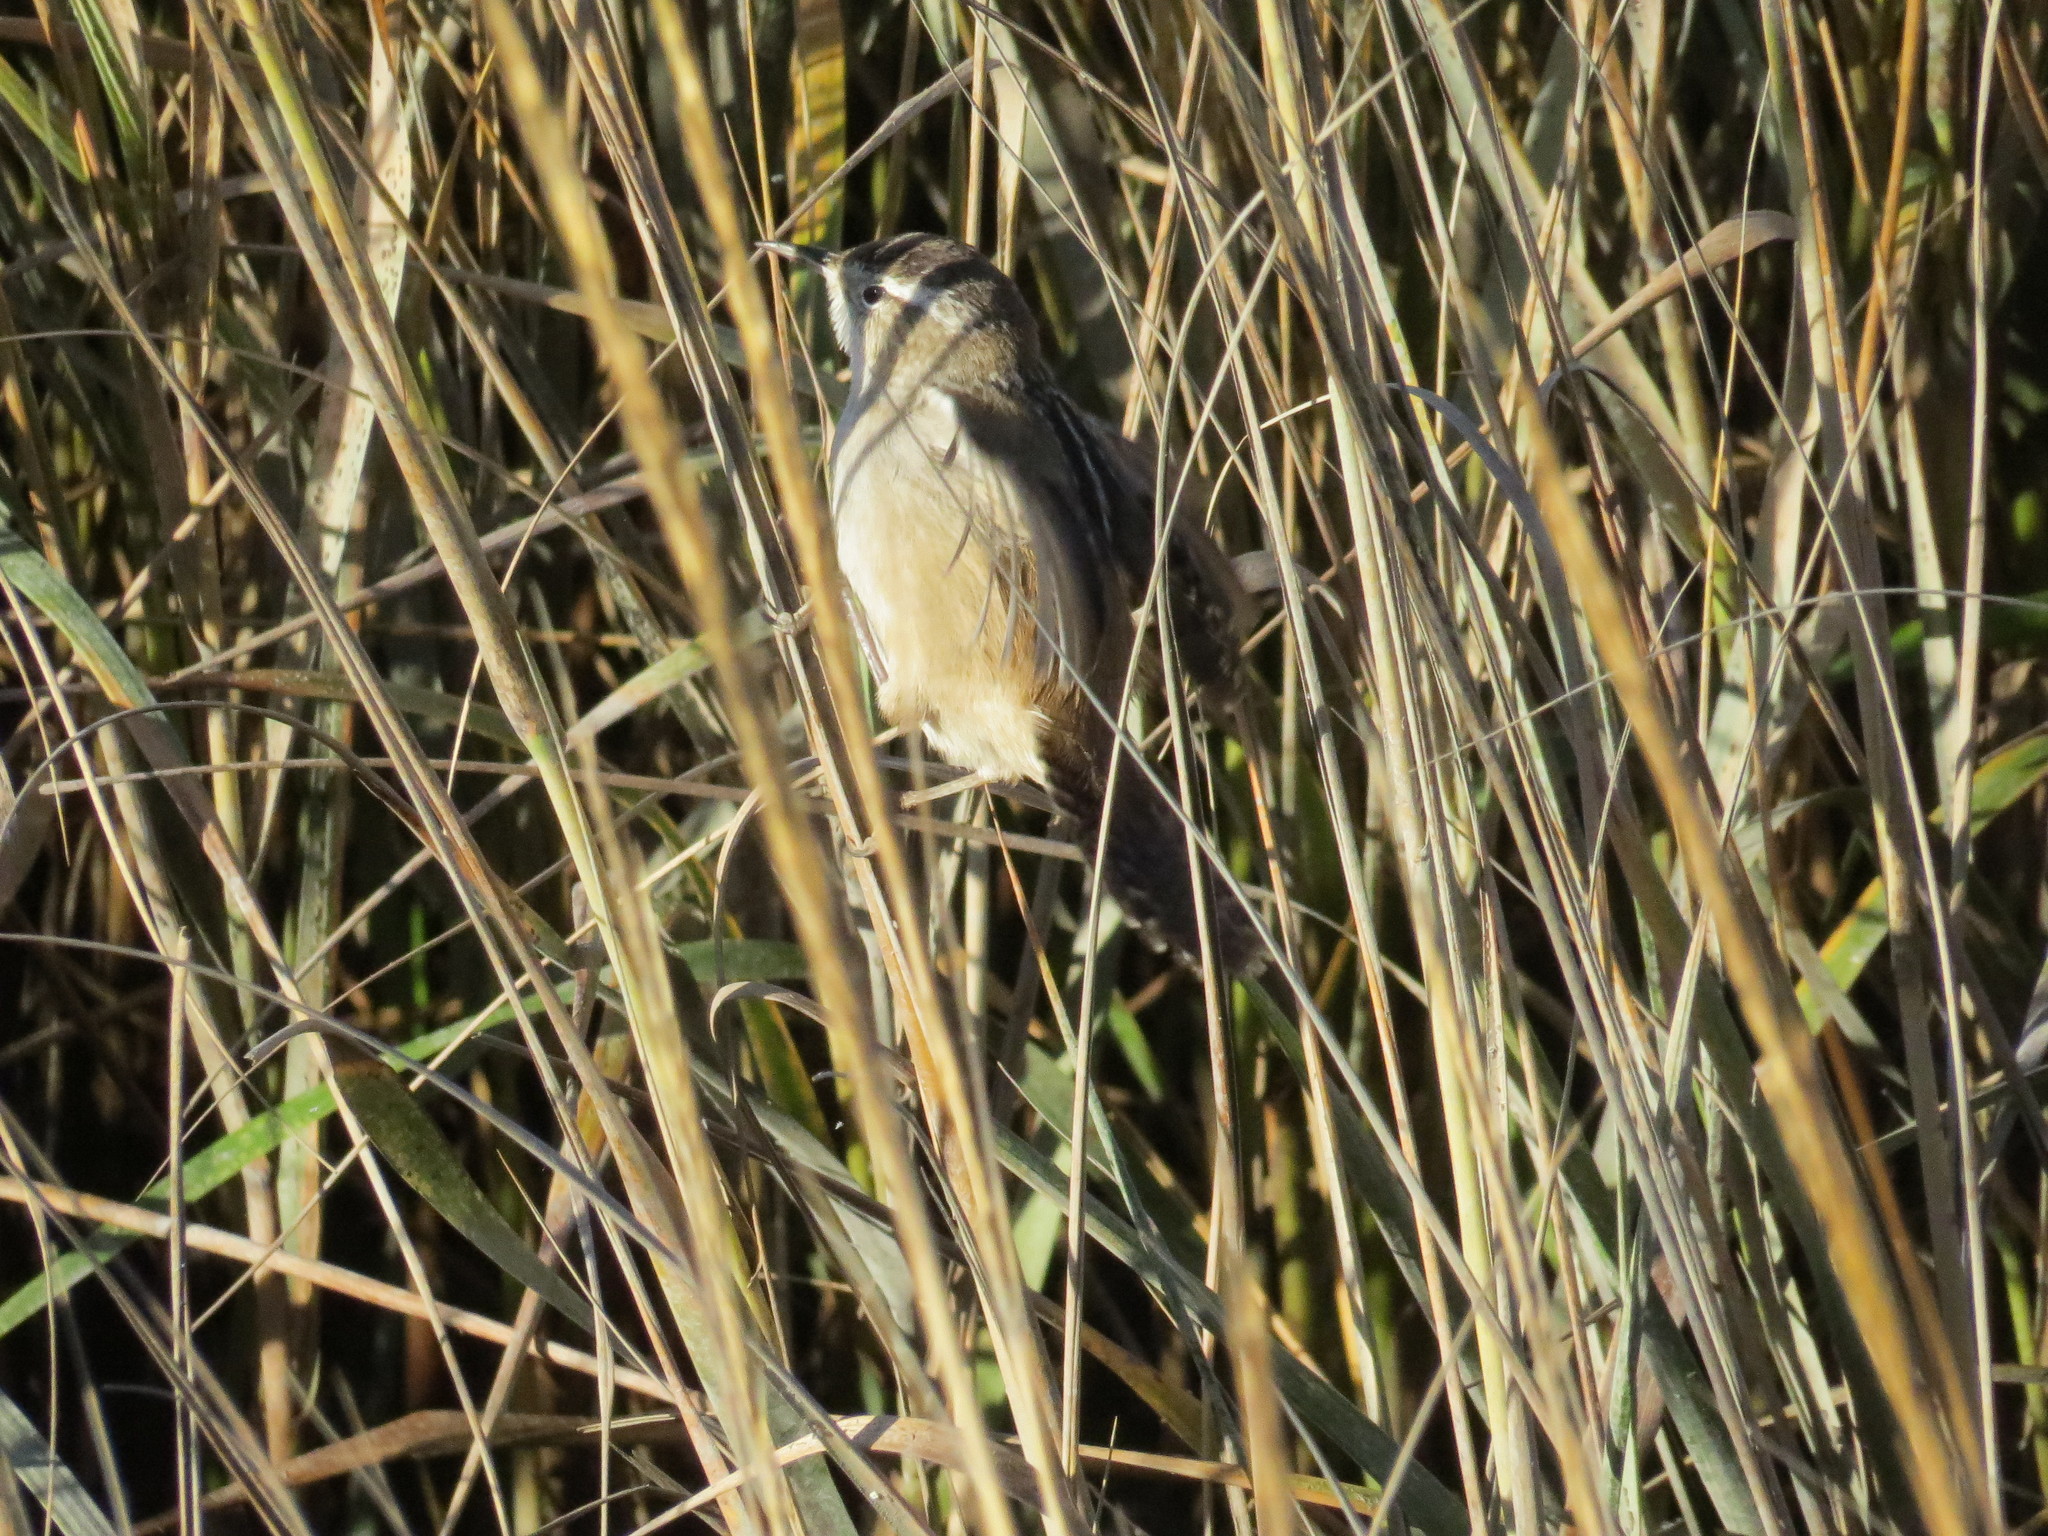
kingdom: Animalia
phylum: Chordata
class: Aves
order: Passeriformes
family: Troglodytidae
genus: Cistothorus
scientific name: Cistothorus palustris
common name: Marsh wren
